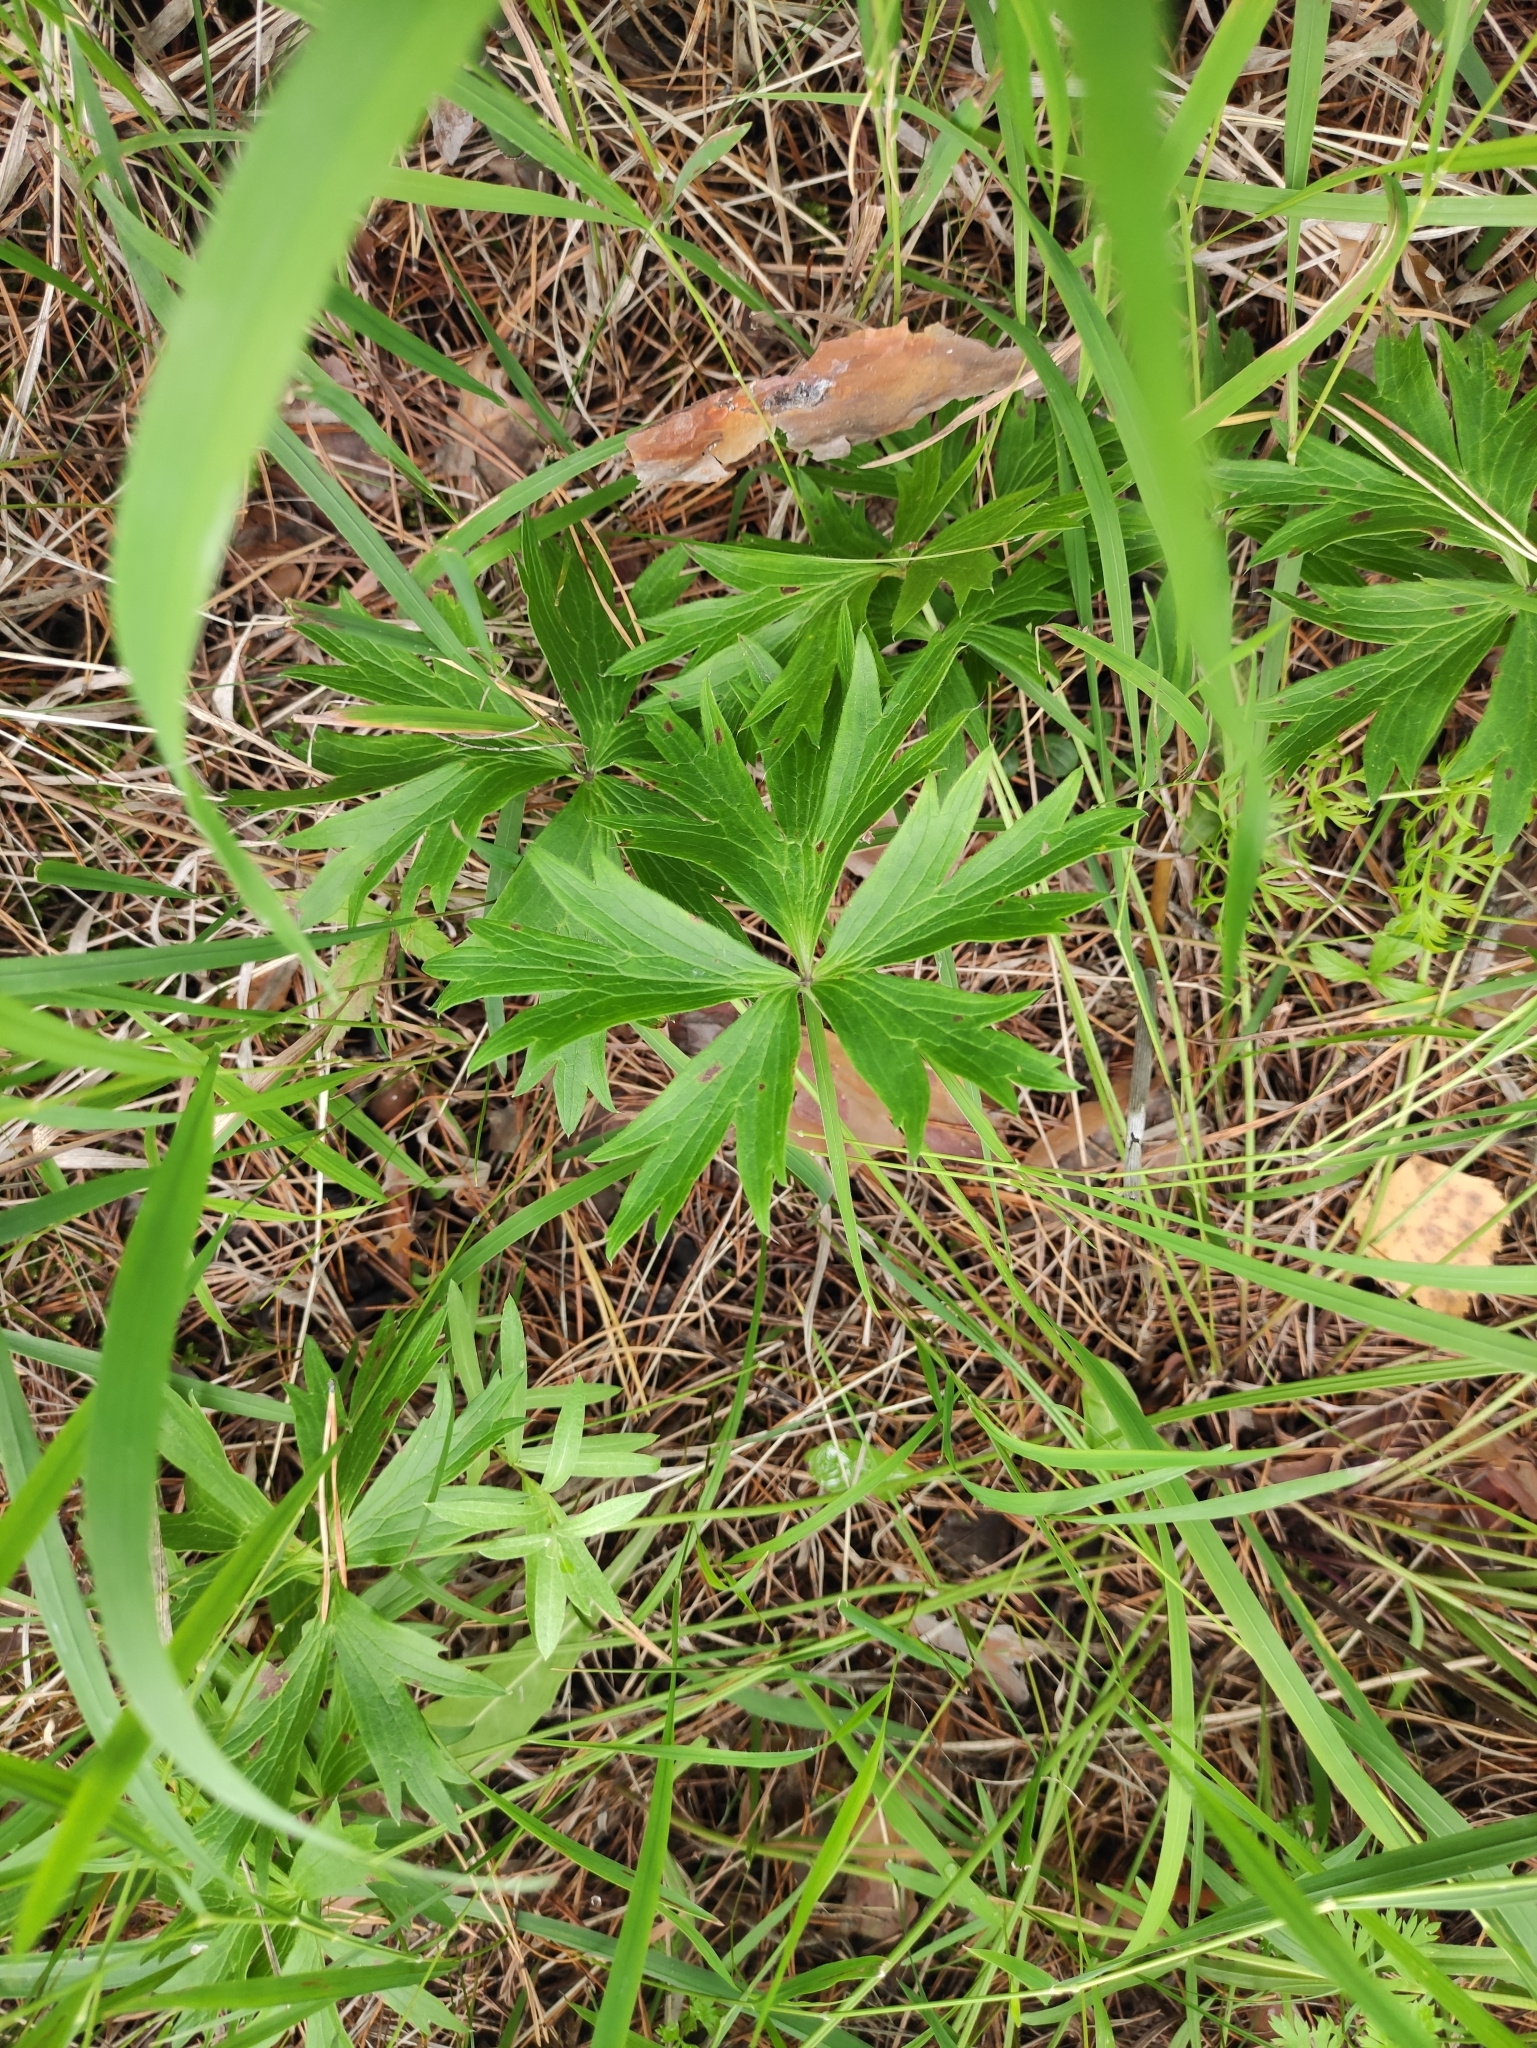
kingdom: Plantae
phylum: Tracheophyta
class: Magnoliopsida
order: Ranunculales
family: Ranunculaceae
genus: Pulsatilla
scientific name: Pulsatilla patens
